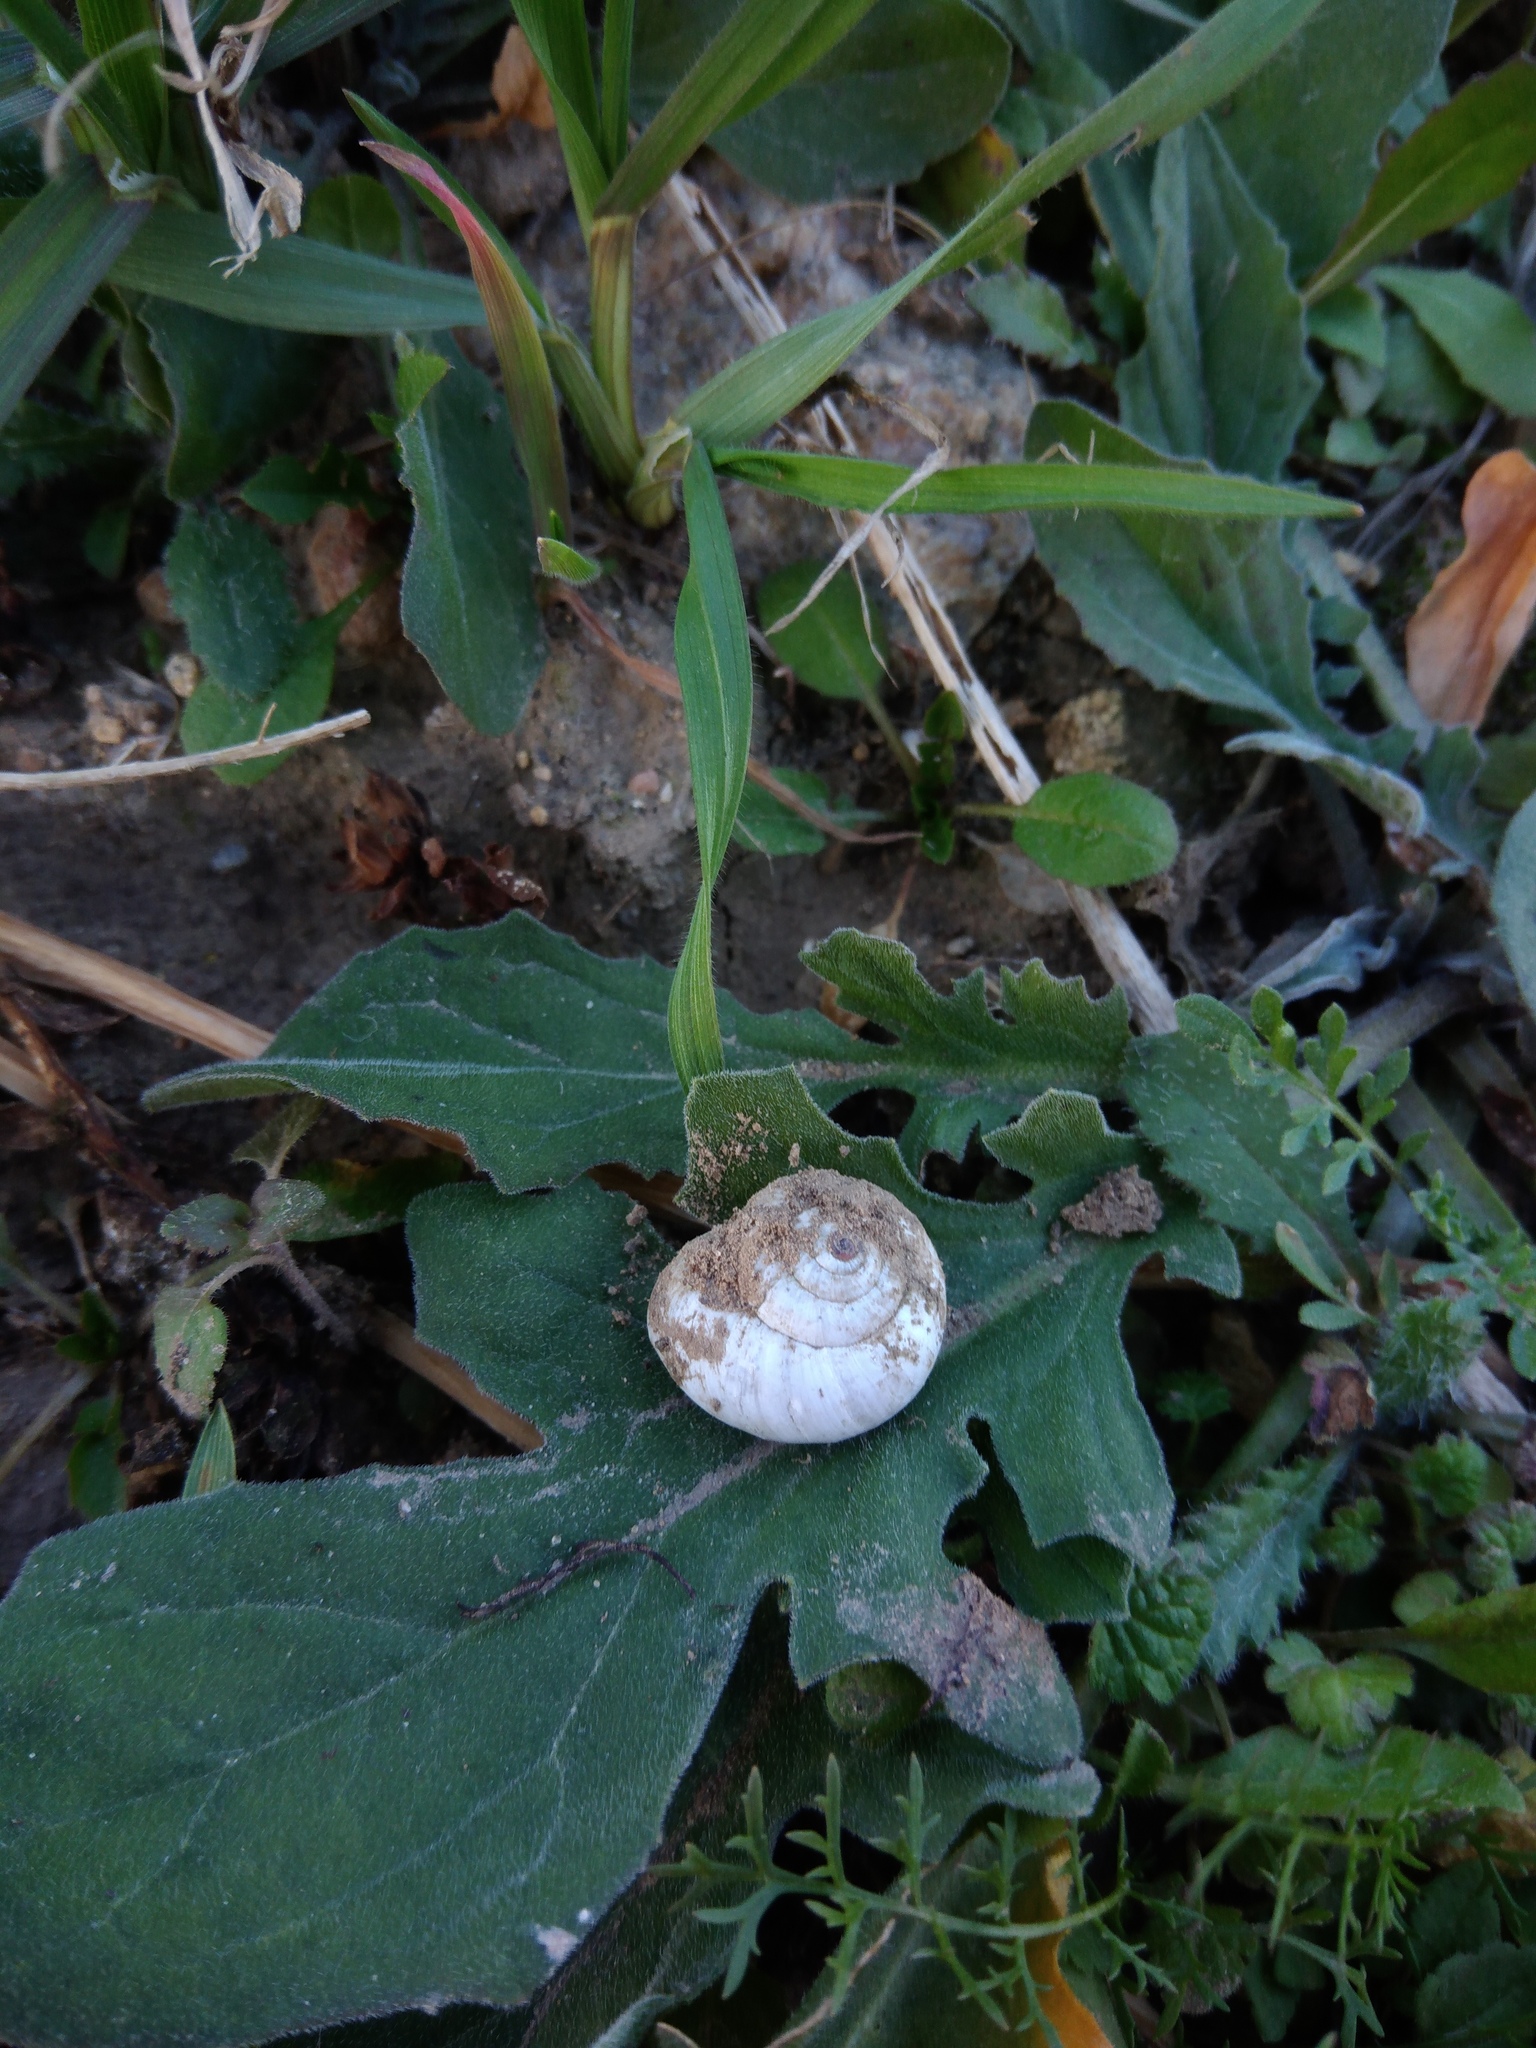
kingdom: Animalia
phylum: Mollusca
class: Gastropoda
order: Stylommatophora
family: Hygromiidae
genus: Monacha
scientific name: Monacha fruticola
